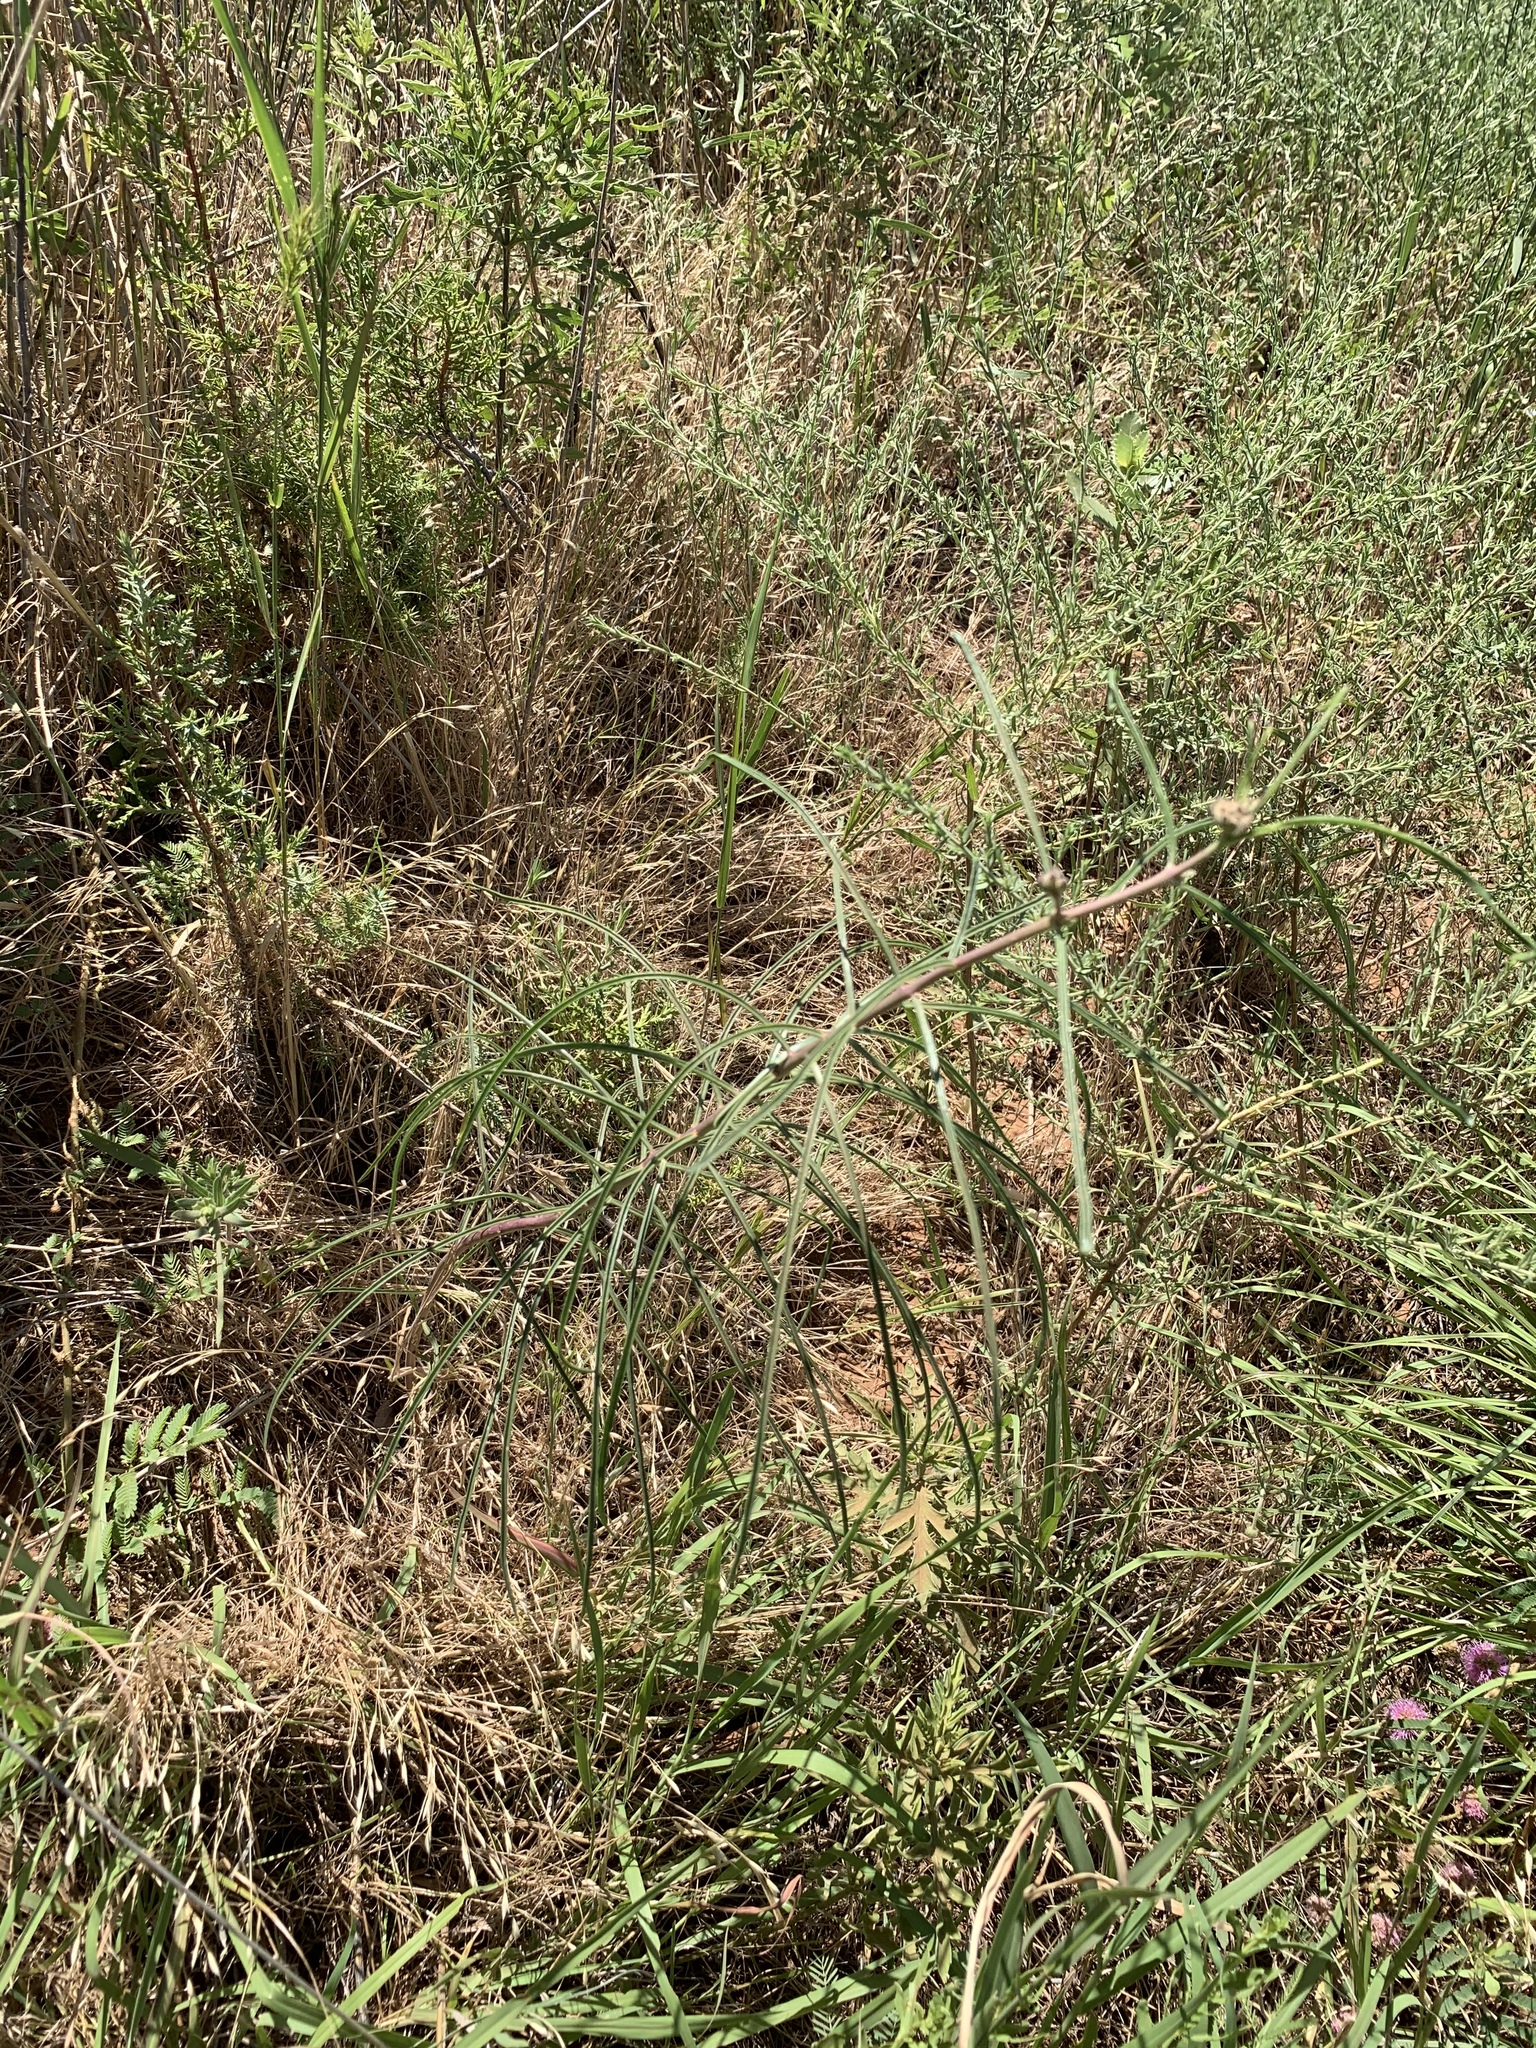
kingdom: Plantae
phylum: Tracheophyta
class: Magnoliopsida
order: Gentianales
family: Apocynaceae
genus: Asclepias
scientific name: Asclepias engelmanniana
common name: Engelmann's milkweed
